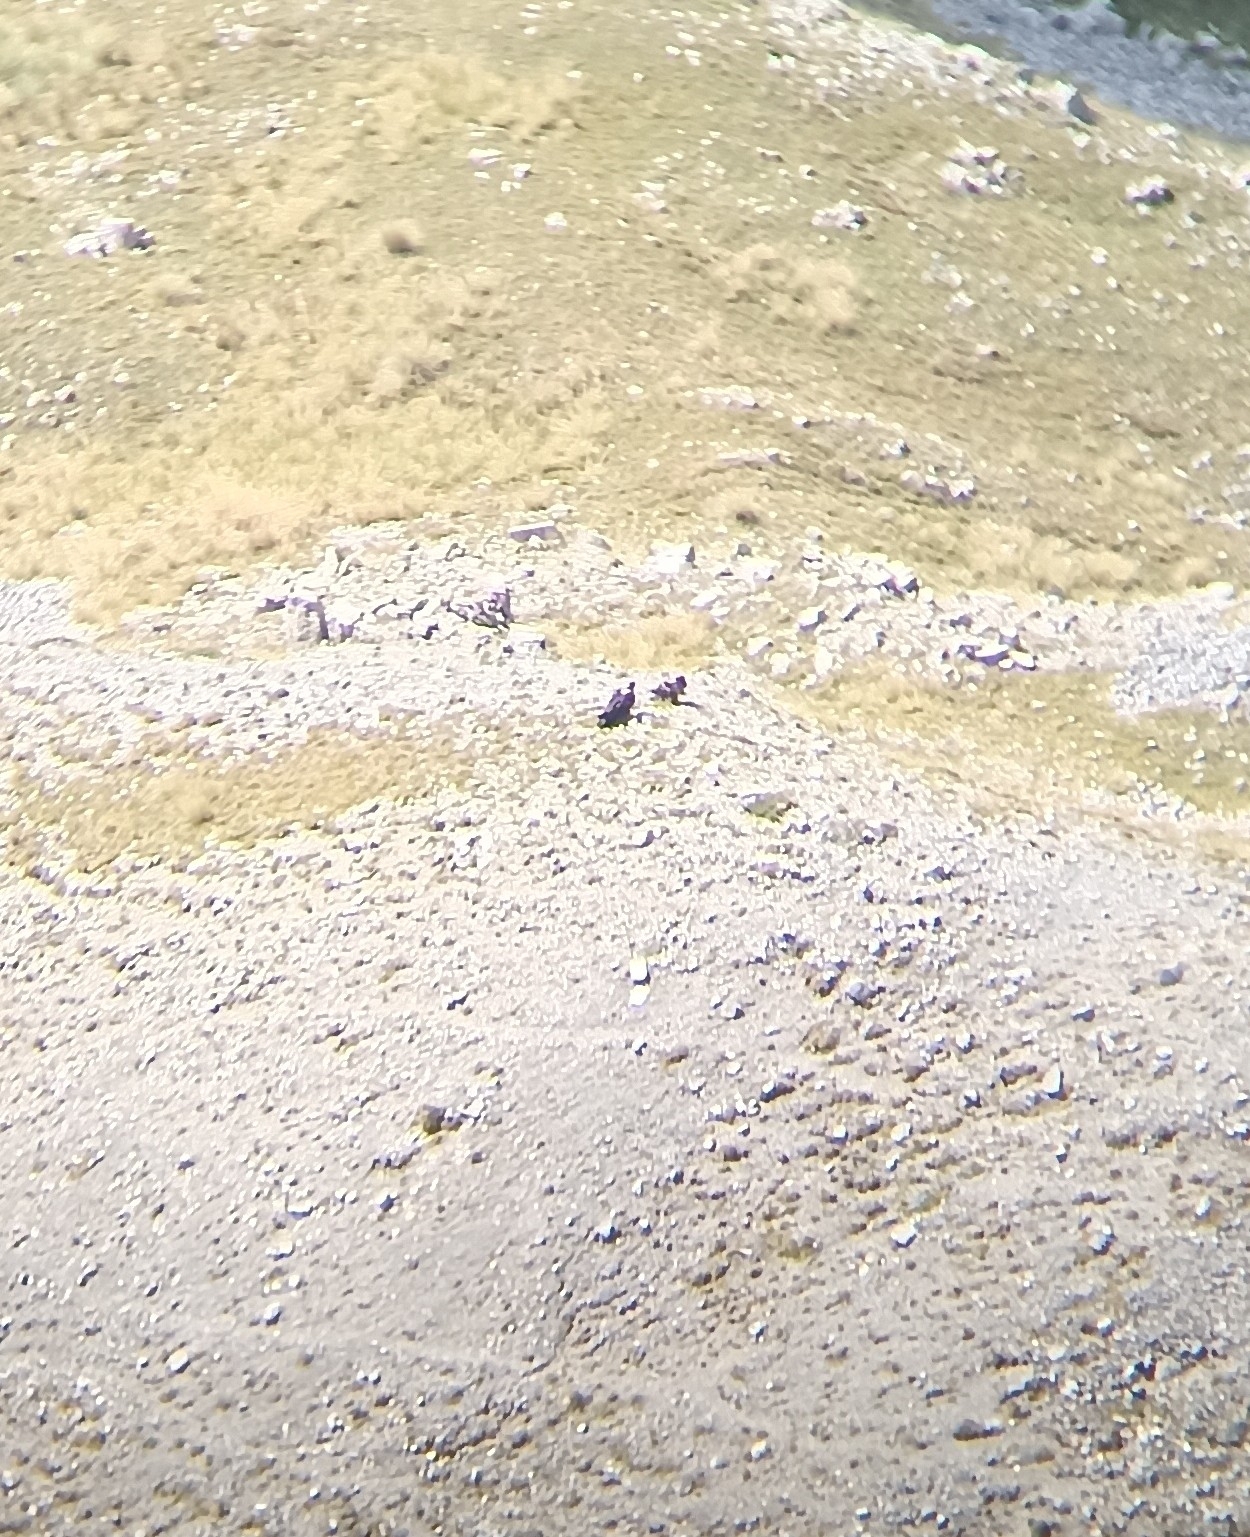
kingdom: Animalia
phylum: Chordata
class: Aves
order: Accipitriformes
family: Accipitridae
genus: Gypaetus
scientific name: Gypaetus barbatus
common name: Bearded vulture
